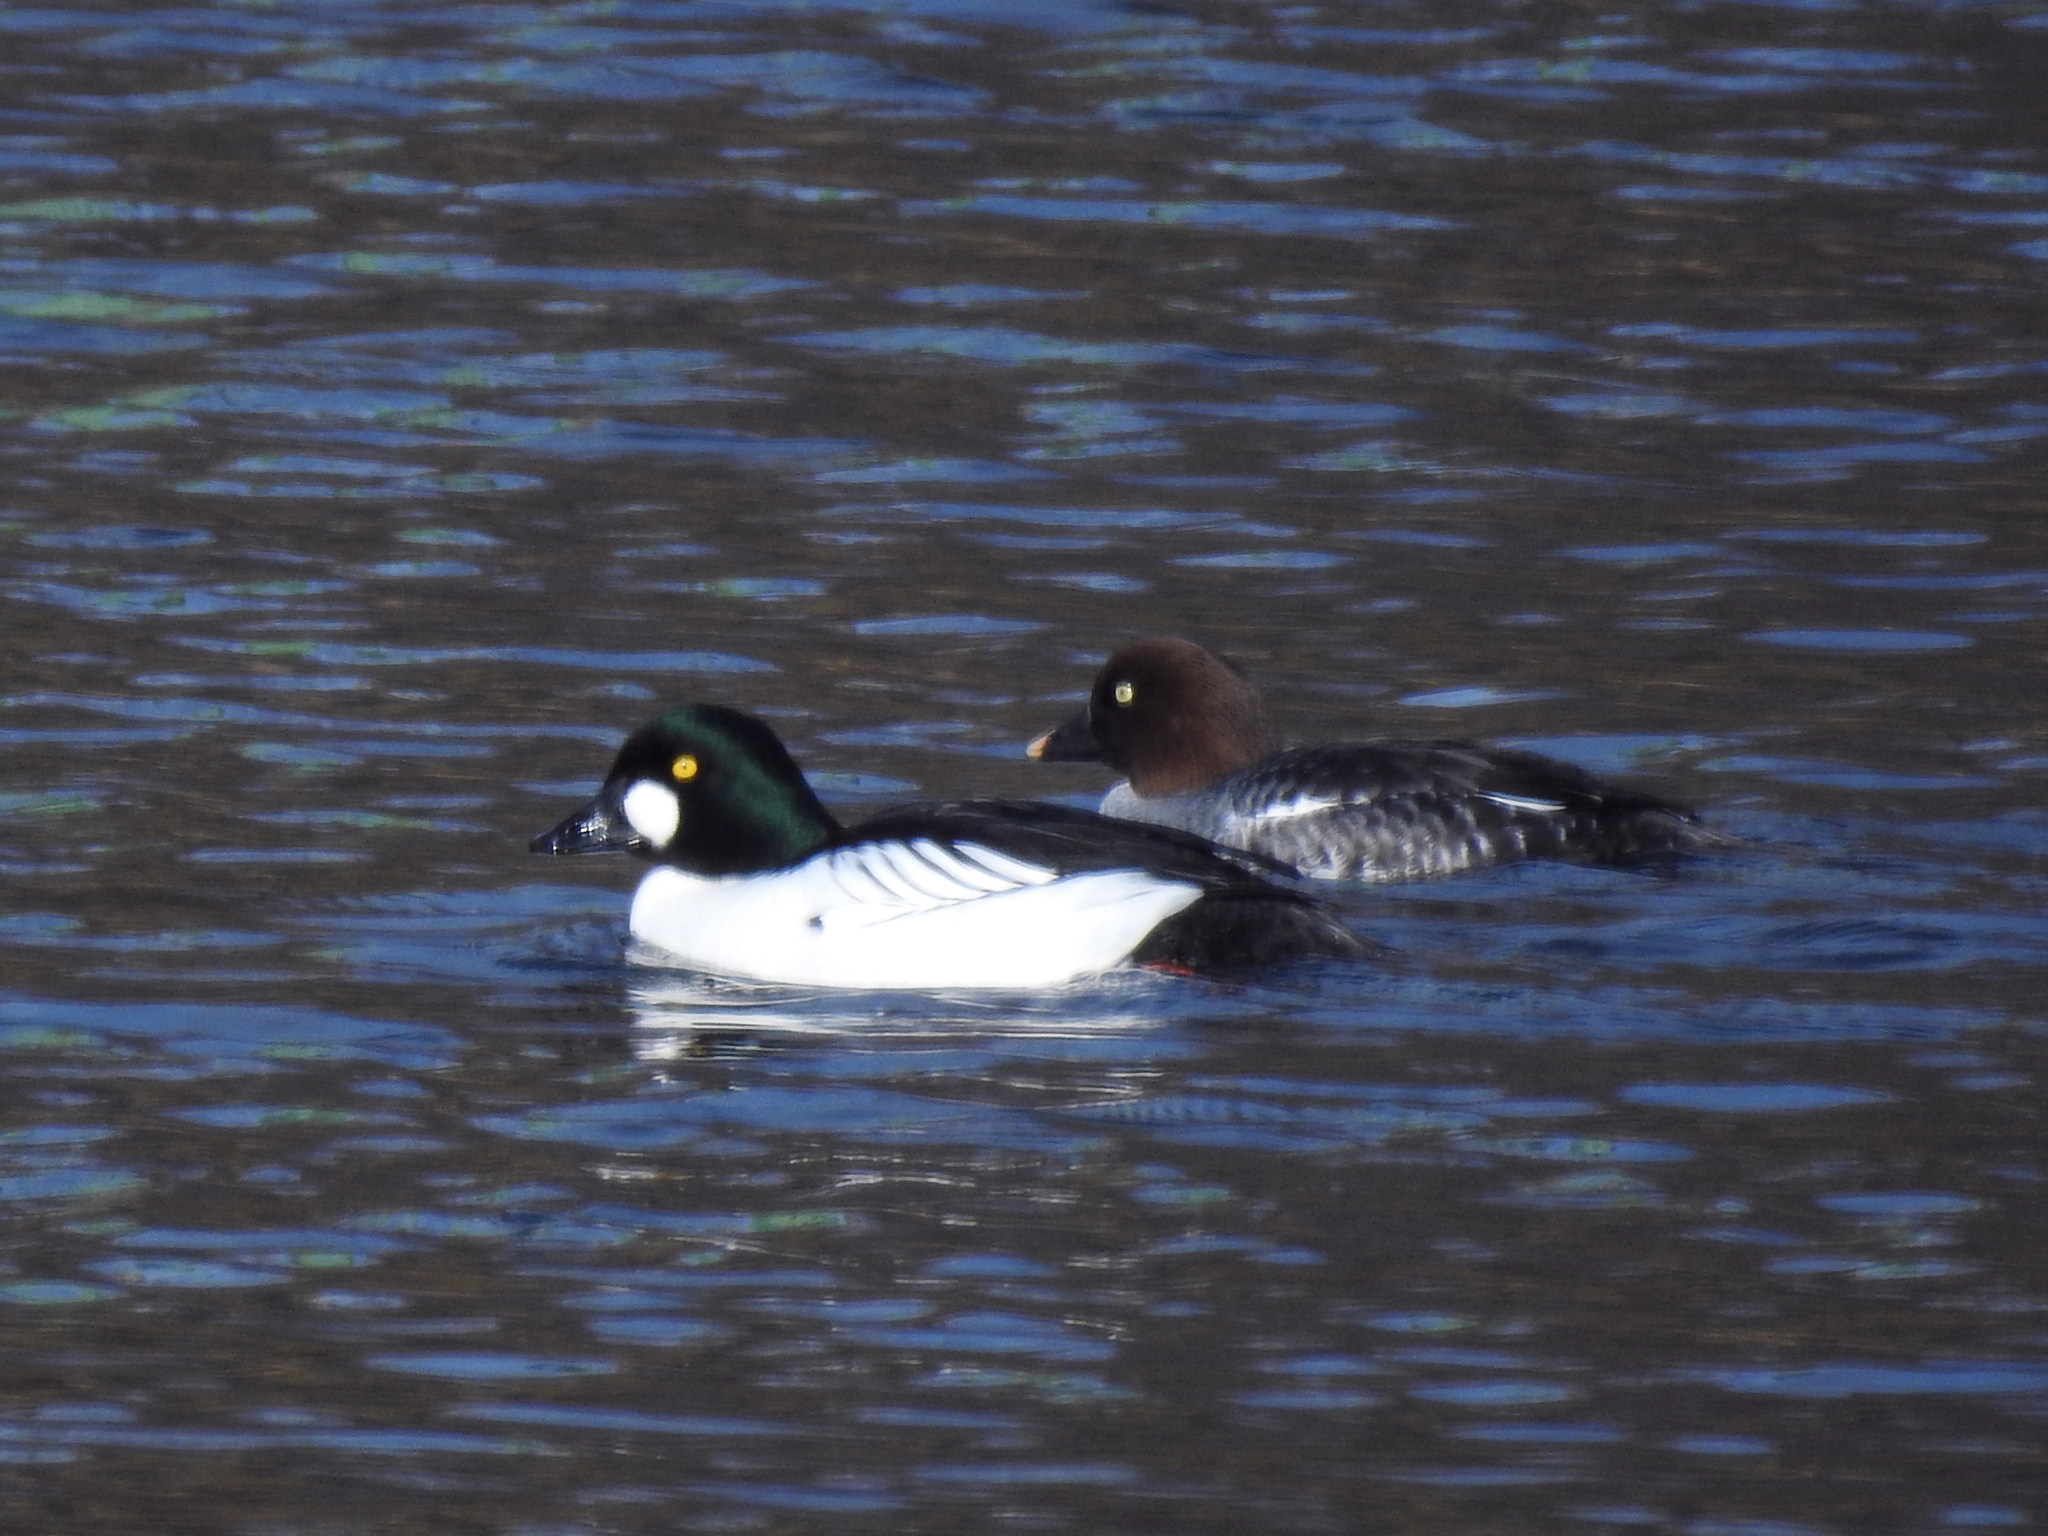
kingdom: Animalia
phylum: Chordata
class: Aves
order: Anseriformes
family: Anatidae
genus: Bucephala
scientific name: Bucephala clangula
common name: Common goldeneye
